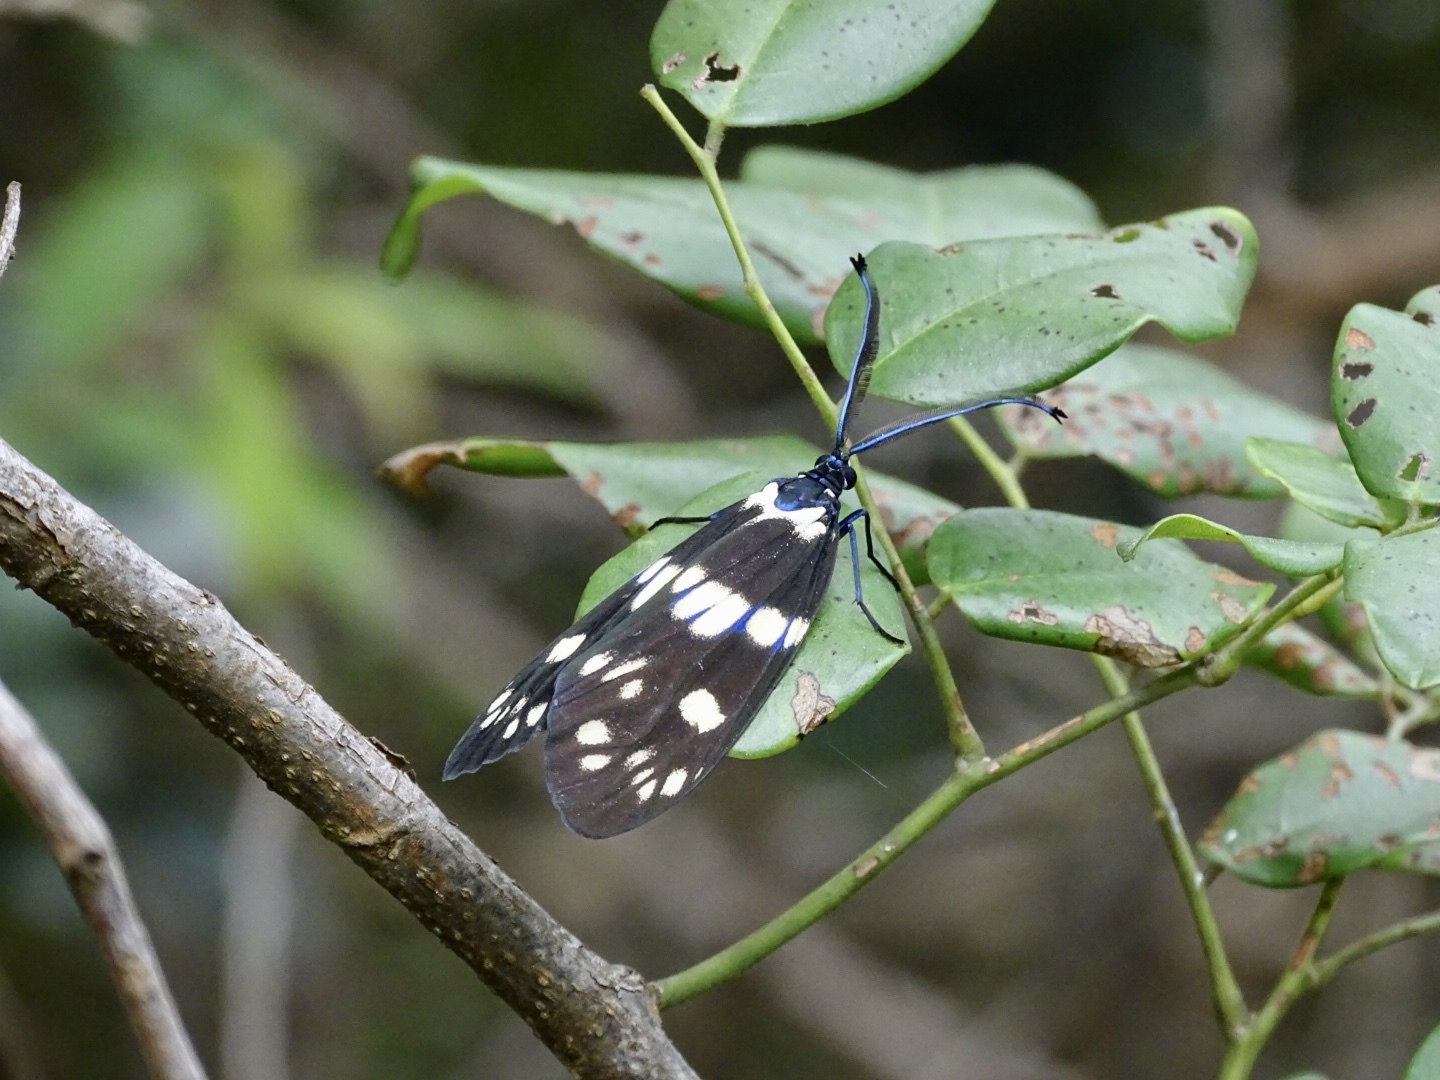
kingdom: Animalia
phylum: Arthropoda
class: Insecta
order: Lepidoptera
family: Zygaenidae
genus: Eterusia
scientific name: Eterusia aedea
